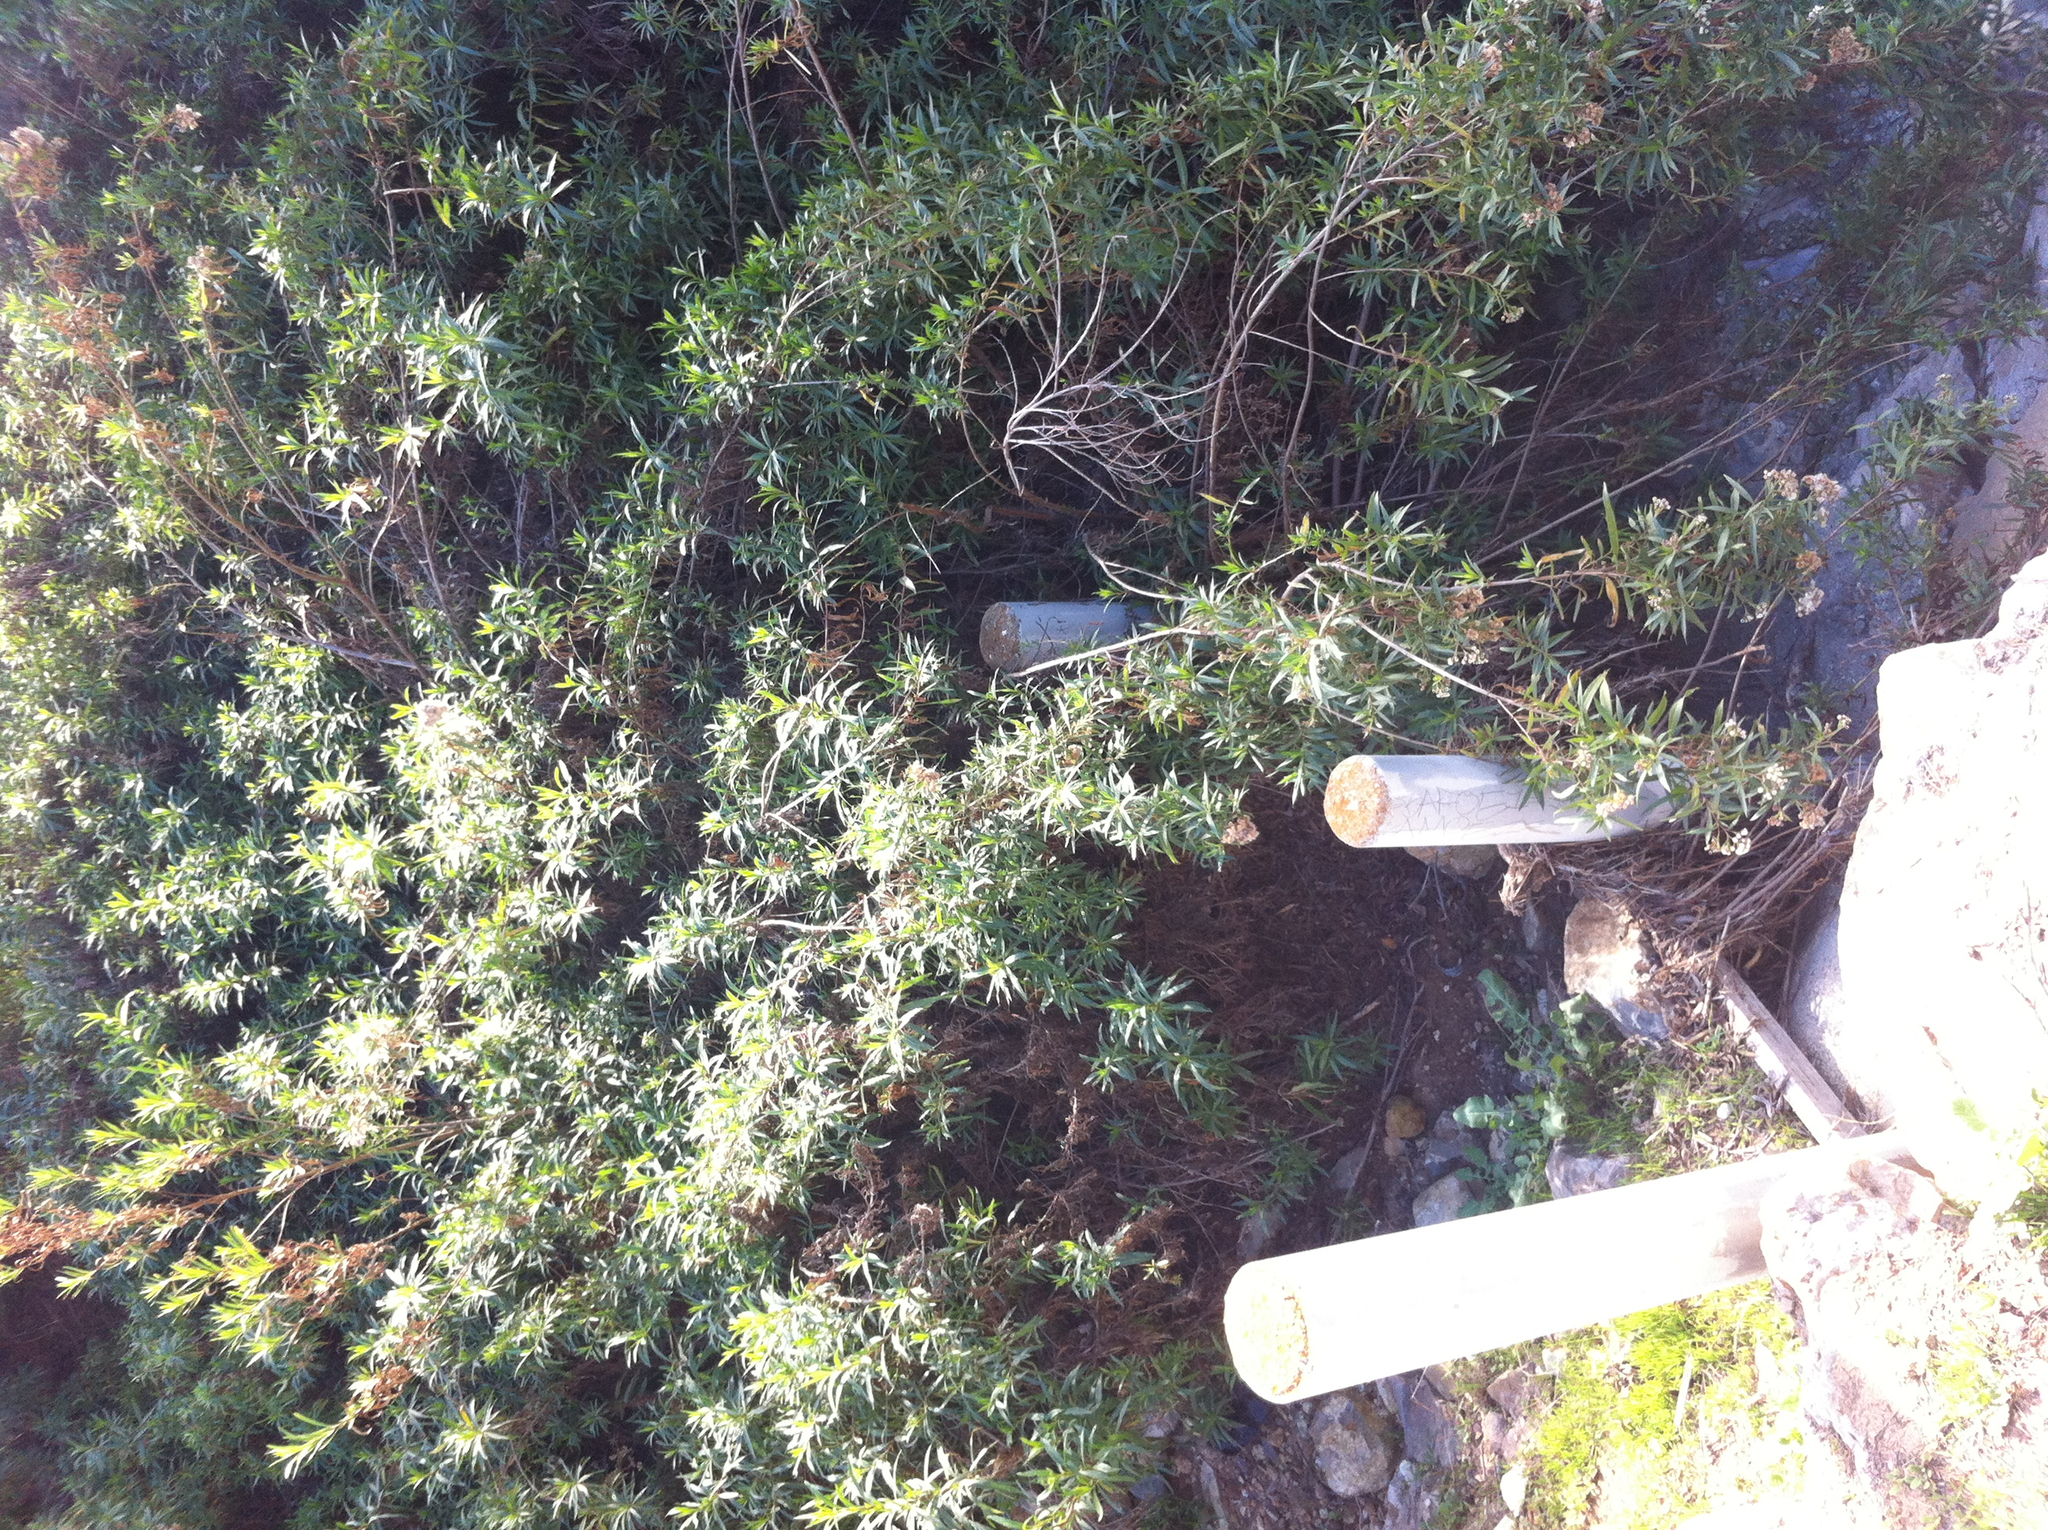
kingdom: Plantae
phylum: Tracheophyta
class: Magnoliopsida
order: Asterales
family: Asteraceae
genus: Baccharis
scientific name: Baccharis salicifolia
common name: Sticky baccharis
